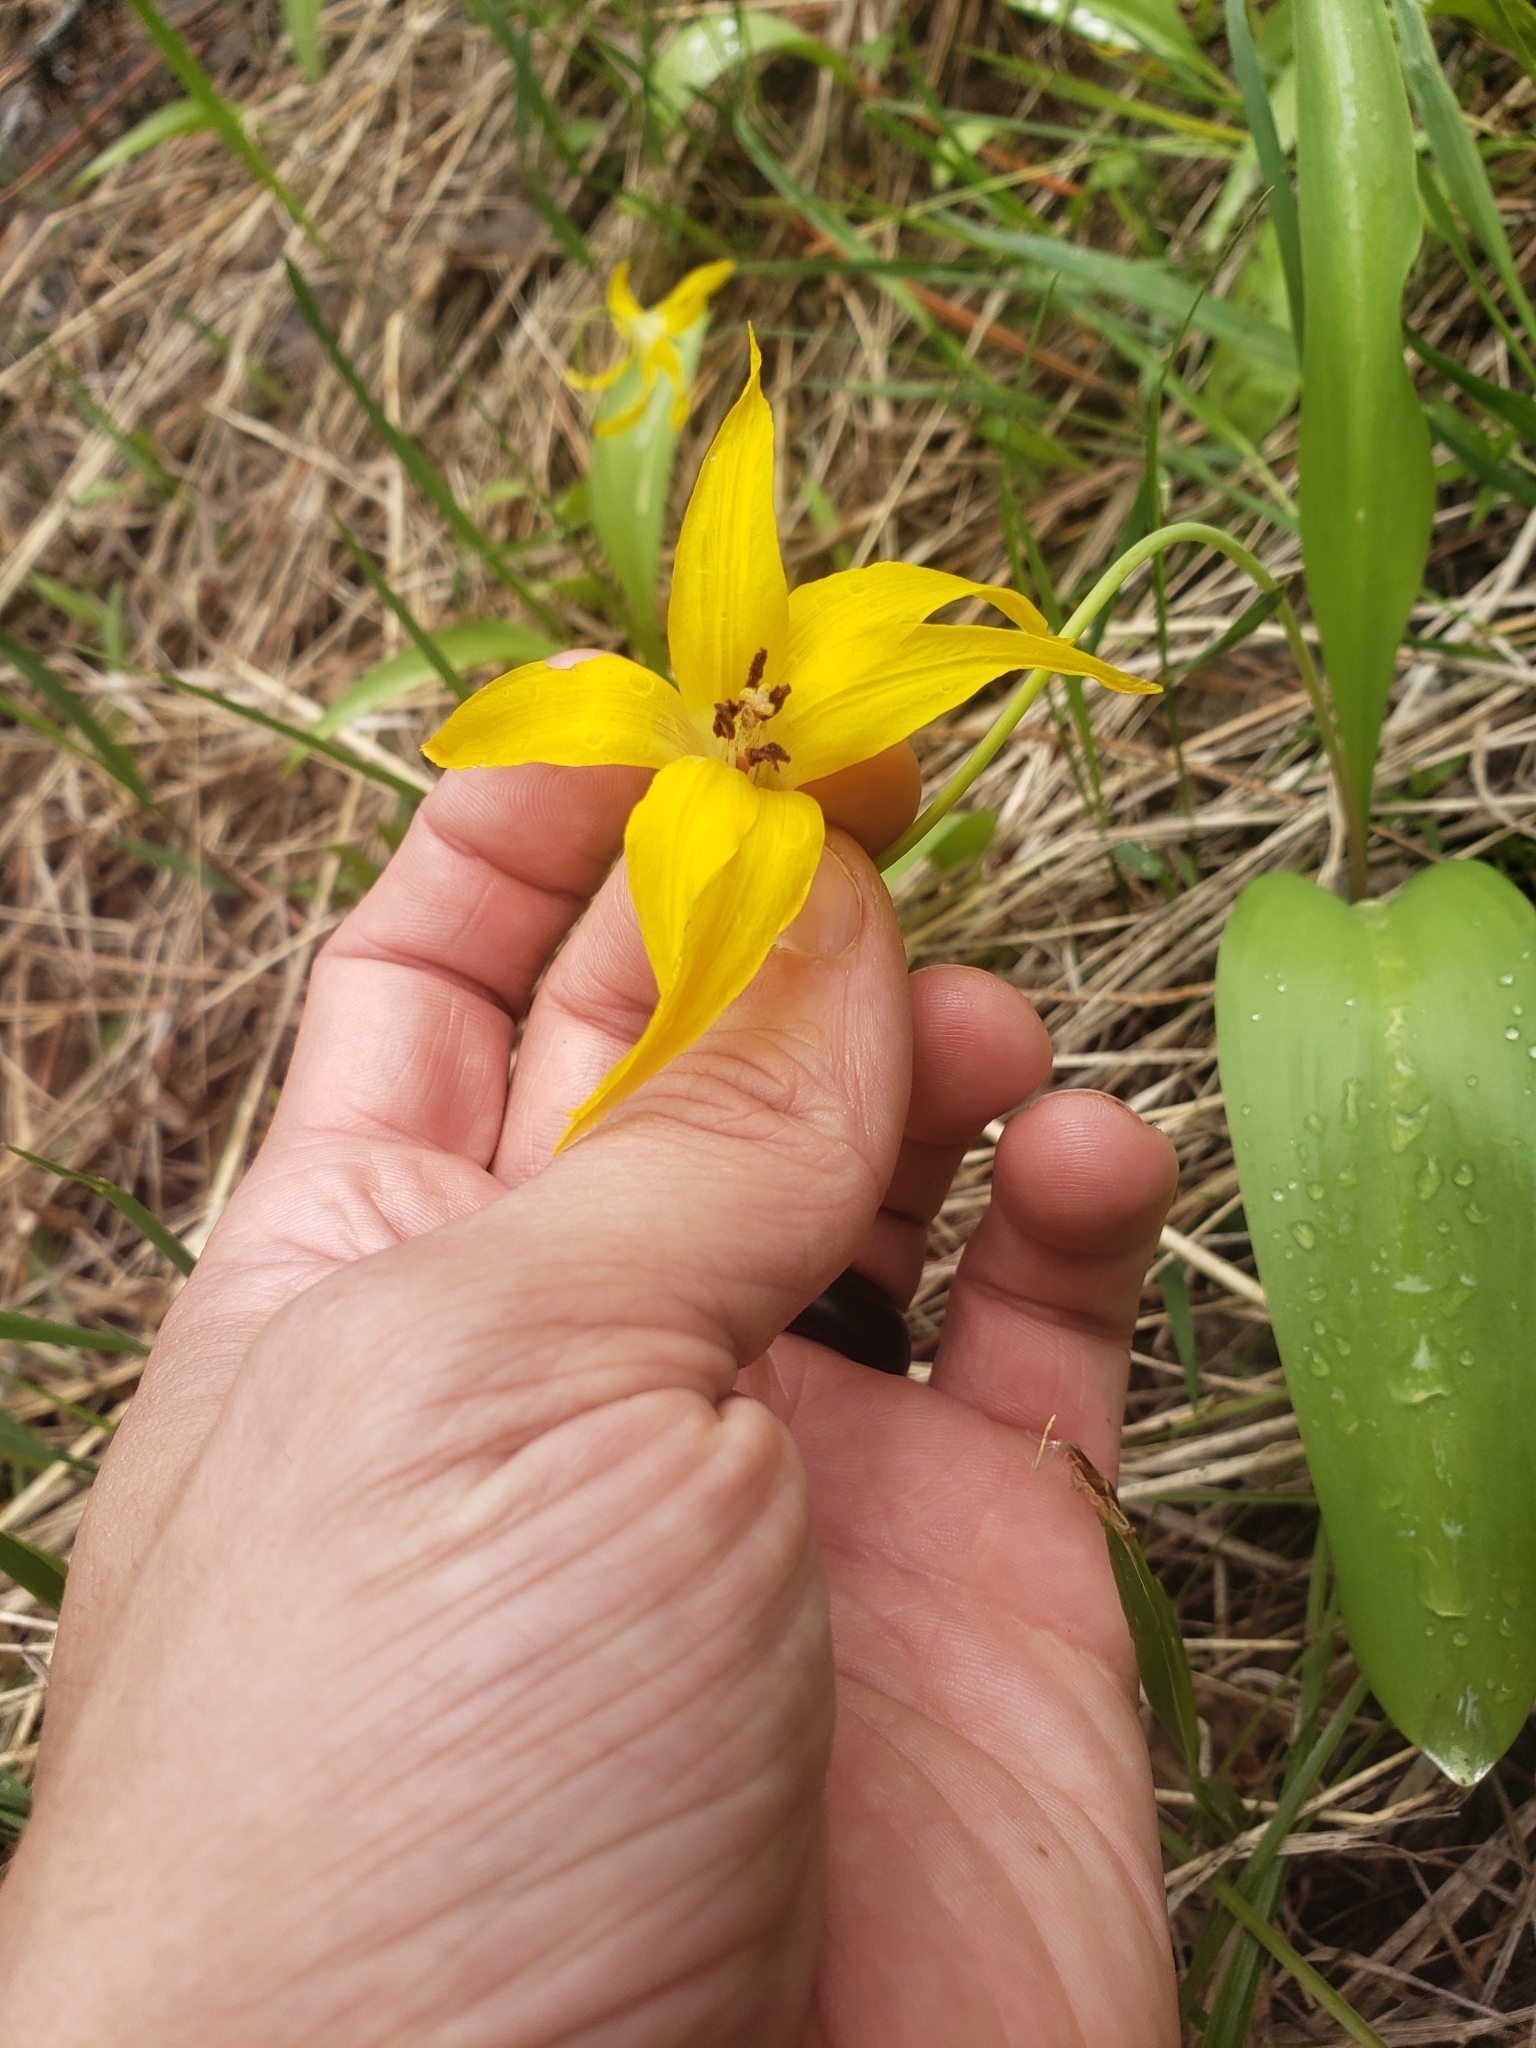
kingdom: Plantae
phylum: Tracheophyta
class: Liliopsida
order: Liliales
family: Liliaceae
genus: Erythronium
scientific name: Erythronium grandiflorum
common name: Avalanche-lily
